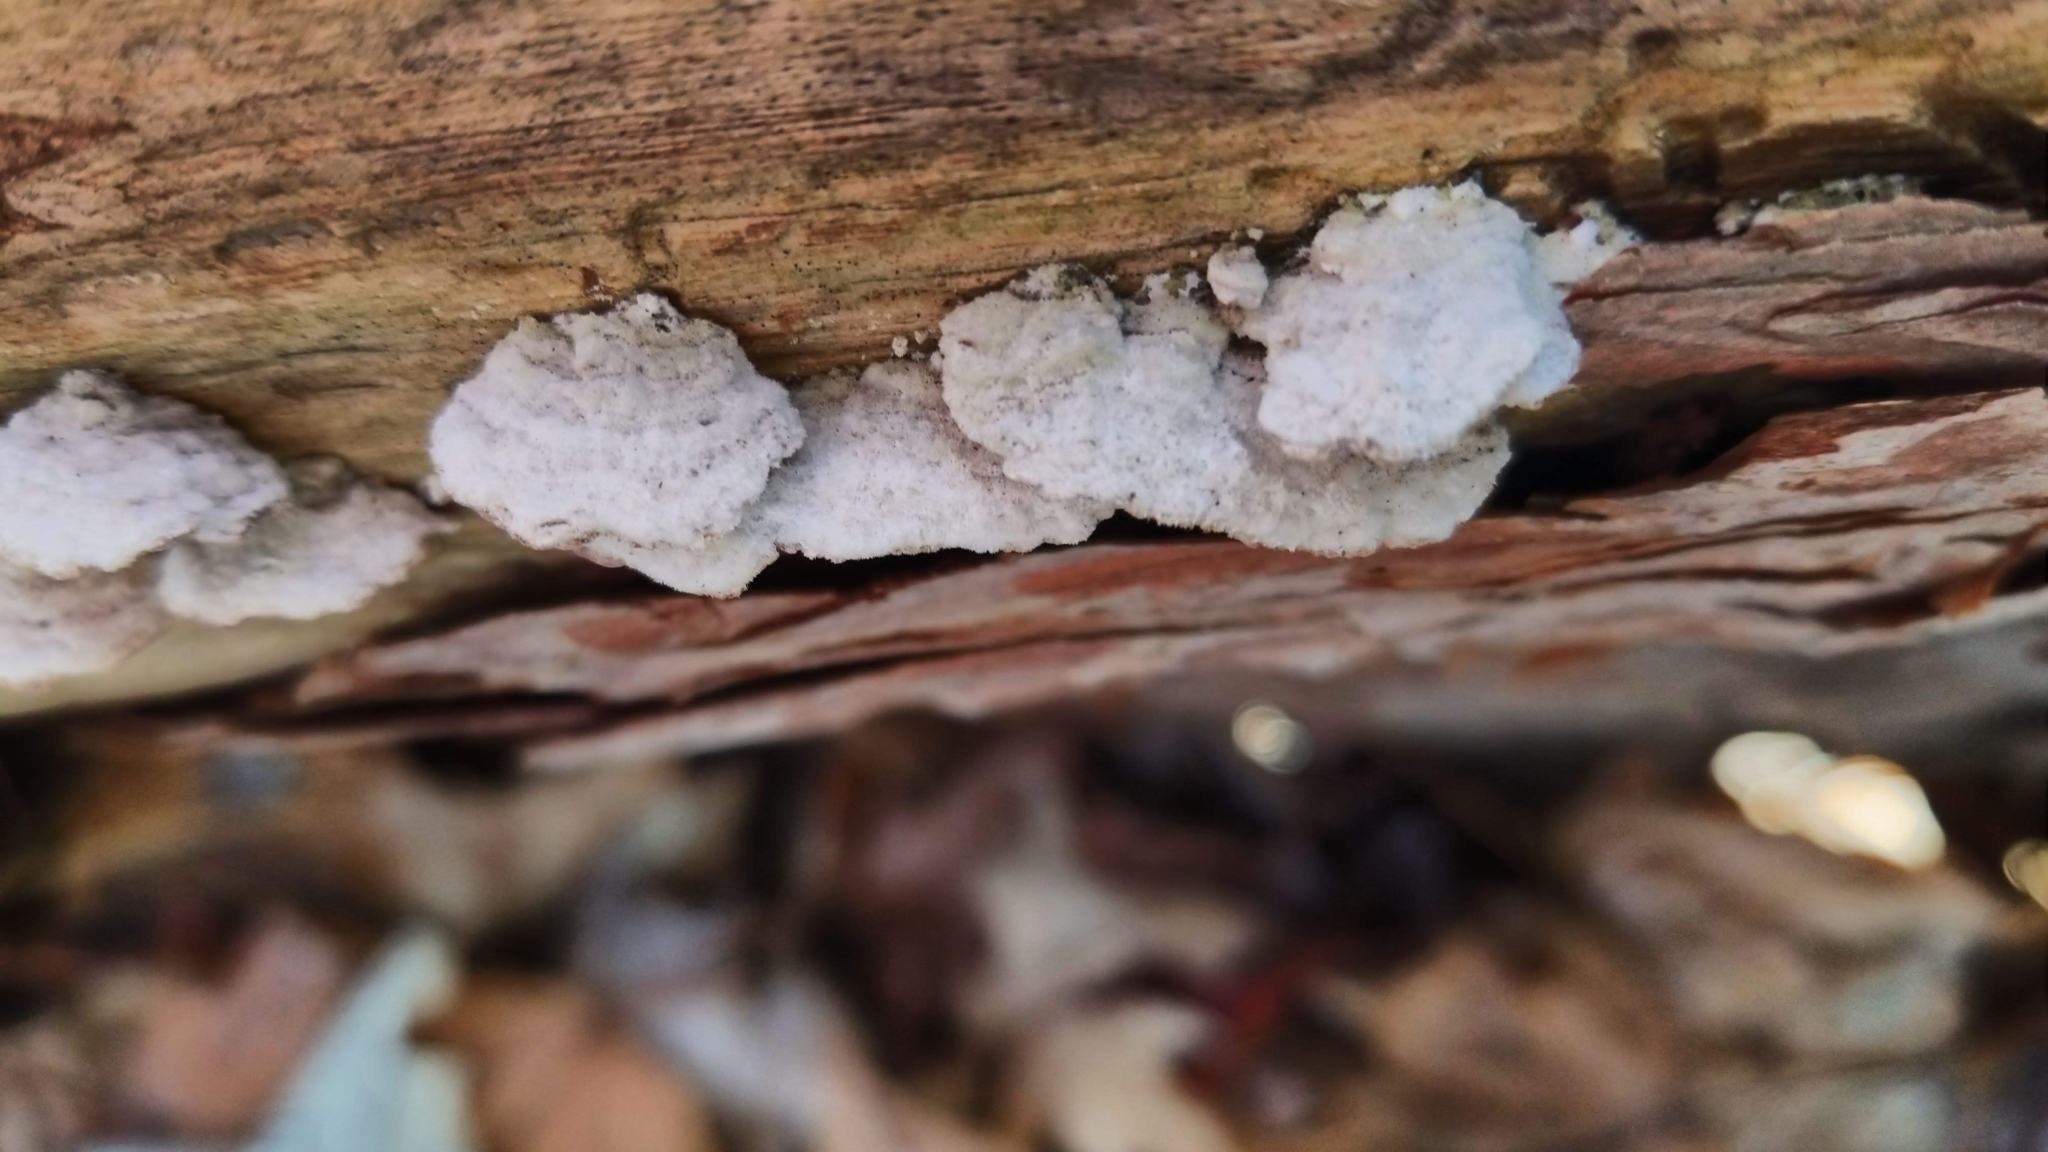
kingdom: Fungi
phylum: Basidiomycota
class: Agaricomycetes
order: Agaricales
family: Schizophyllaceae
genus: Schizophyllum
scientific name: Schizophyllum commune
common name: Common porecrust
